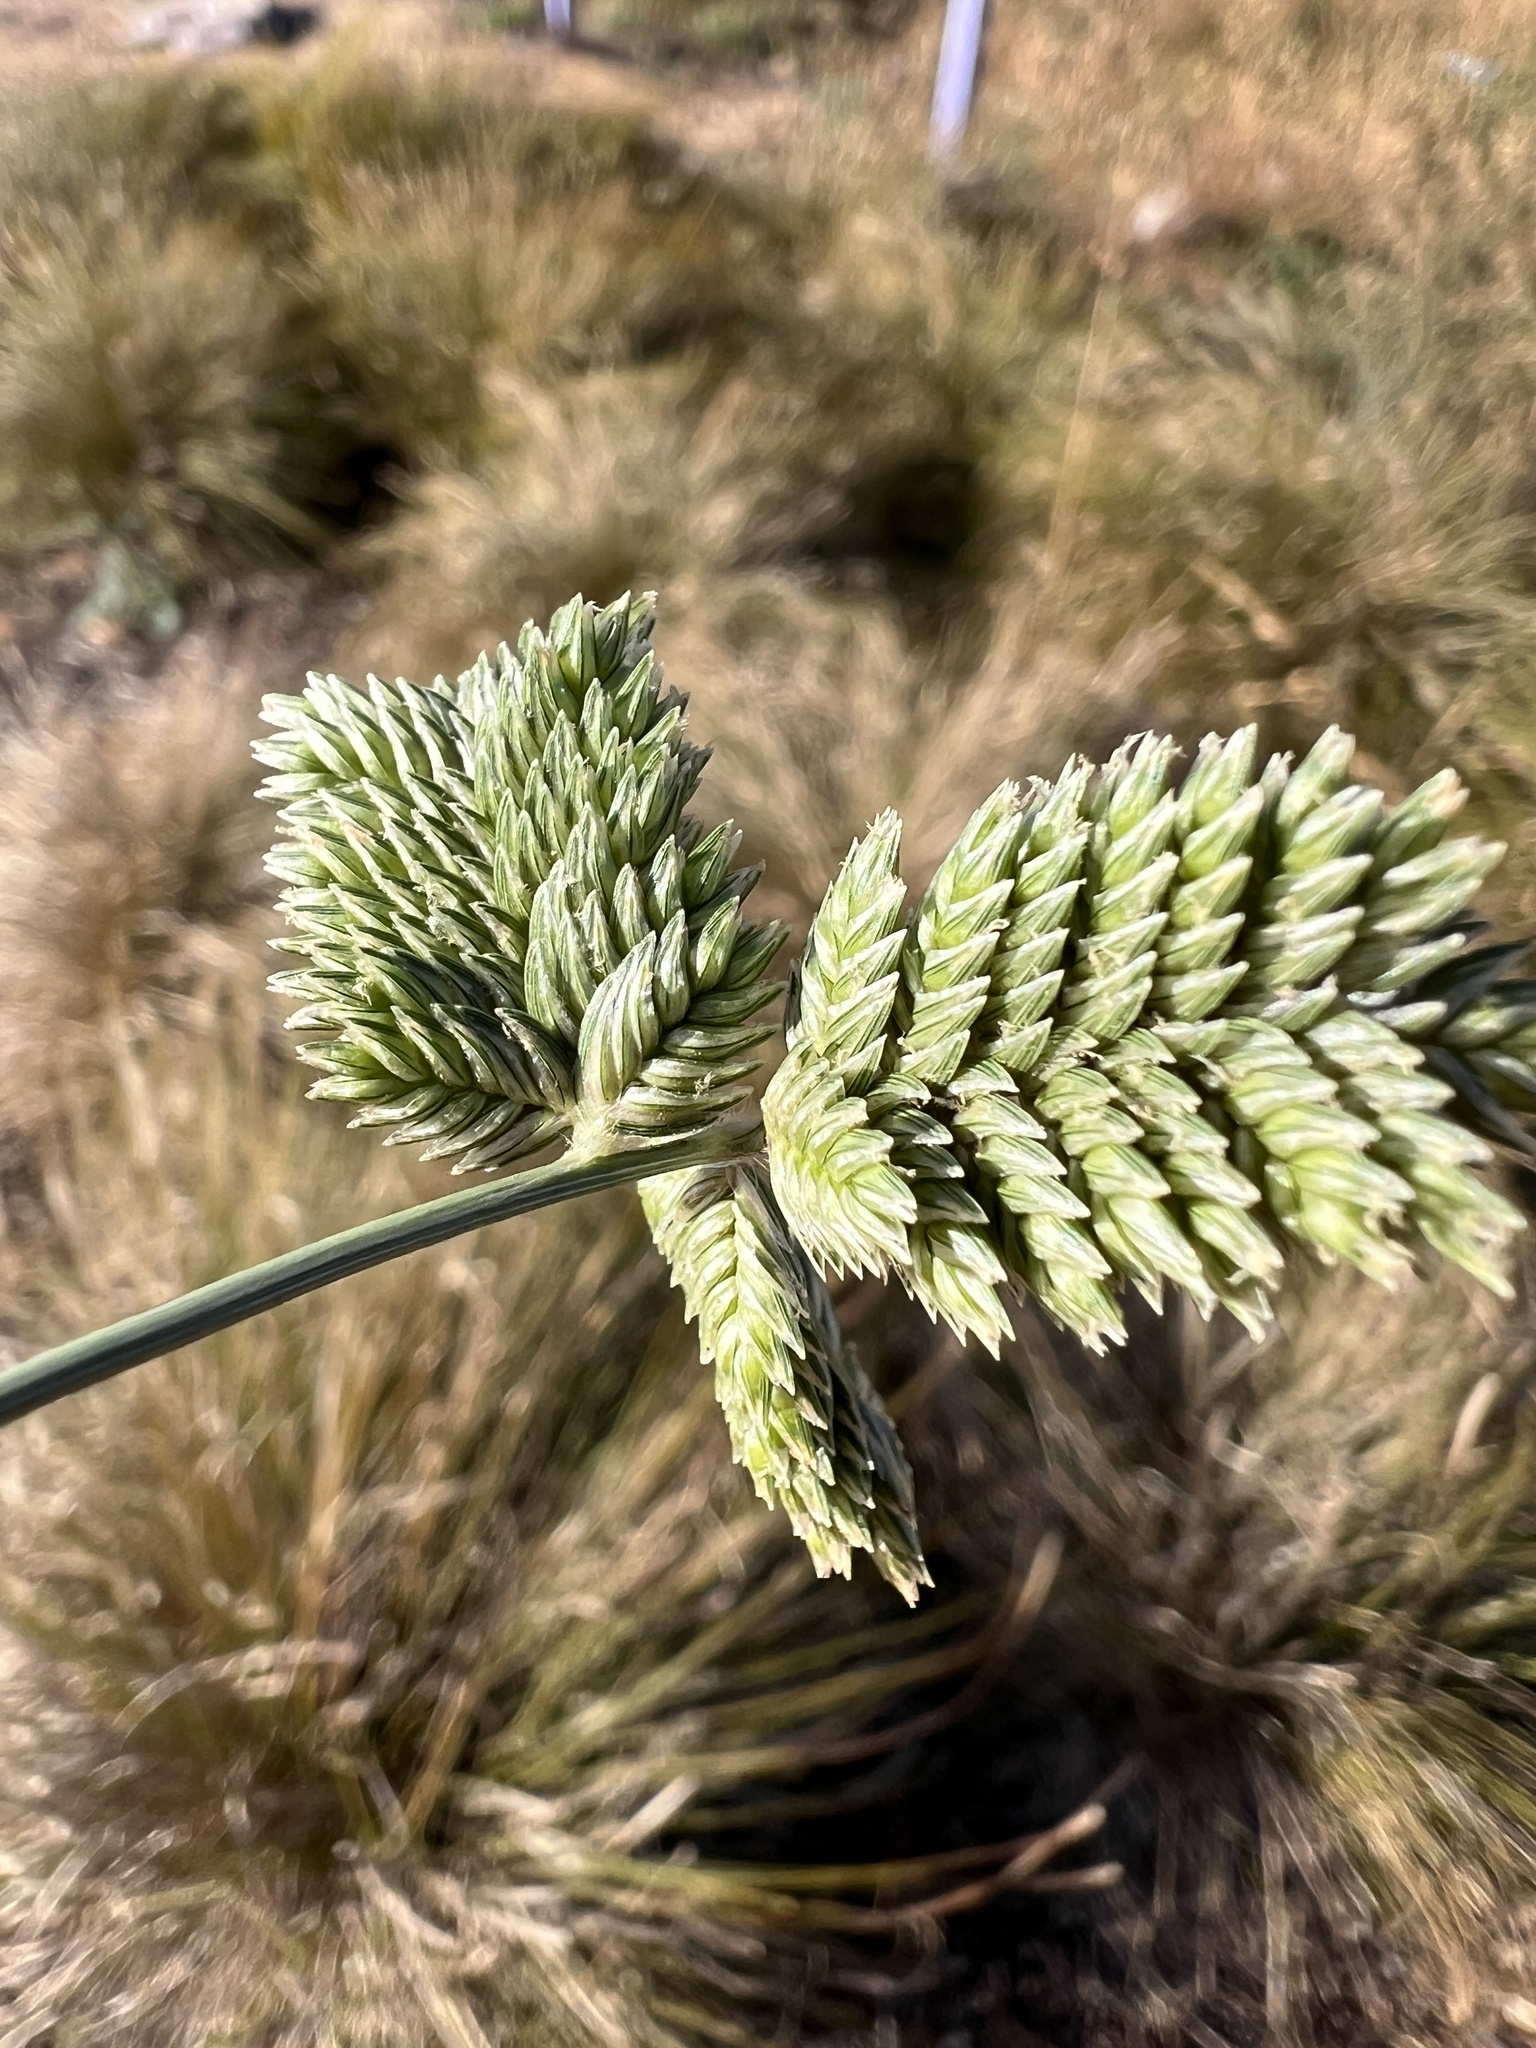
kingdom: Plantae
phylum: Tracheophyta
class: Liliopsida
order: Poales
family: Poaceae
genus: Eleusine
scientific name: Eleusine tristachya
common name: American yard-grass
